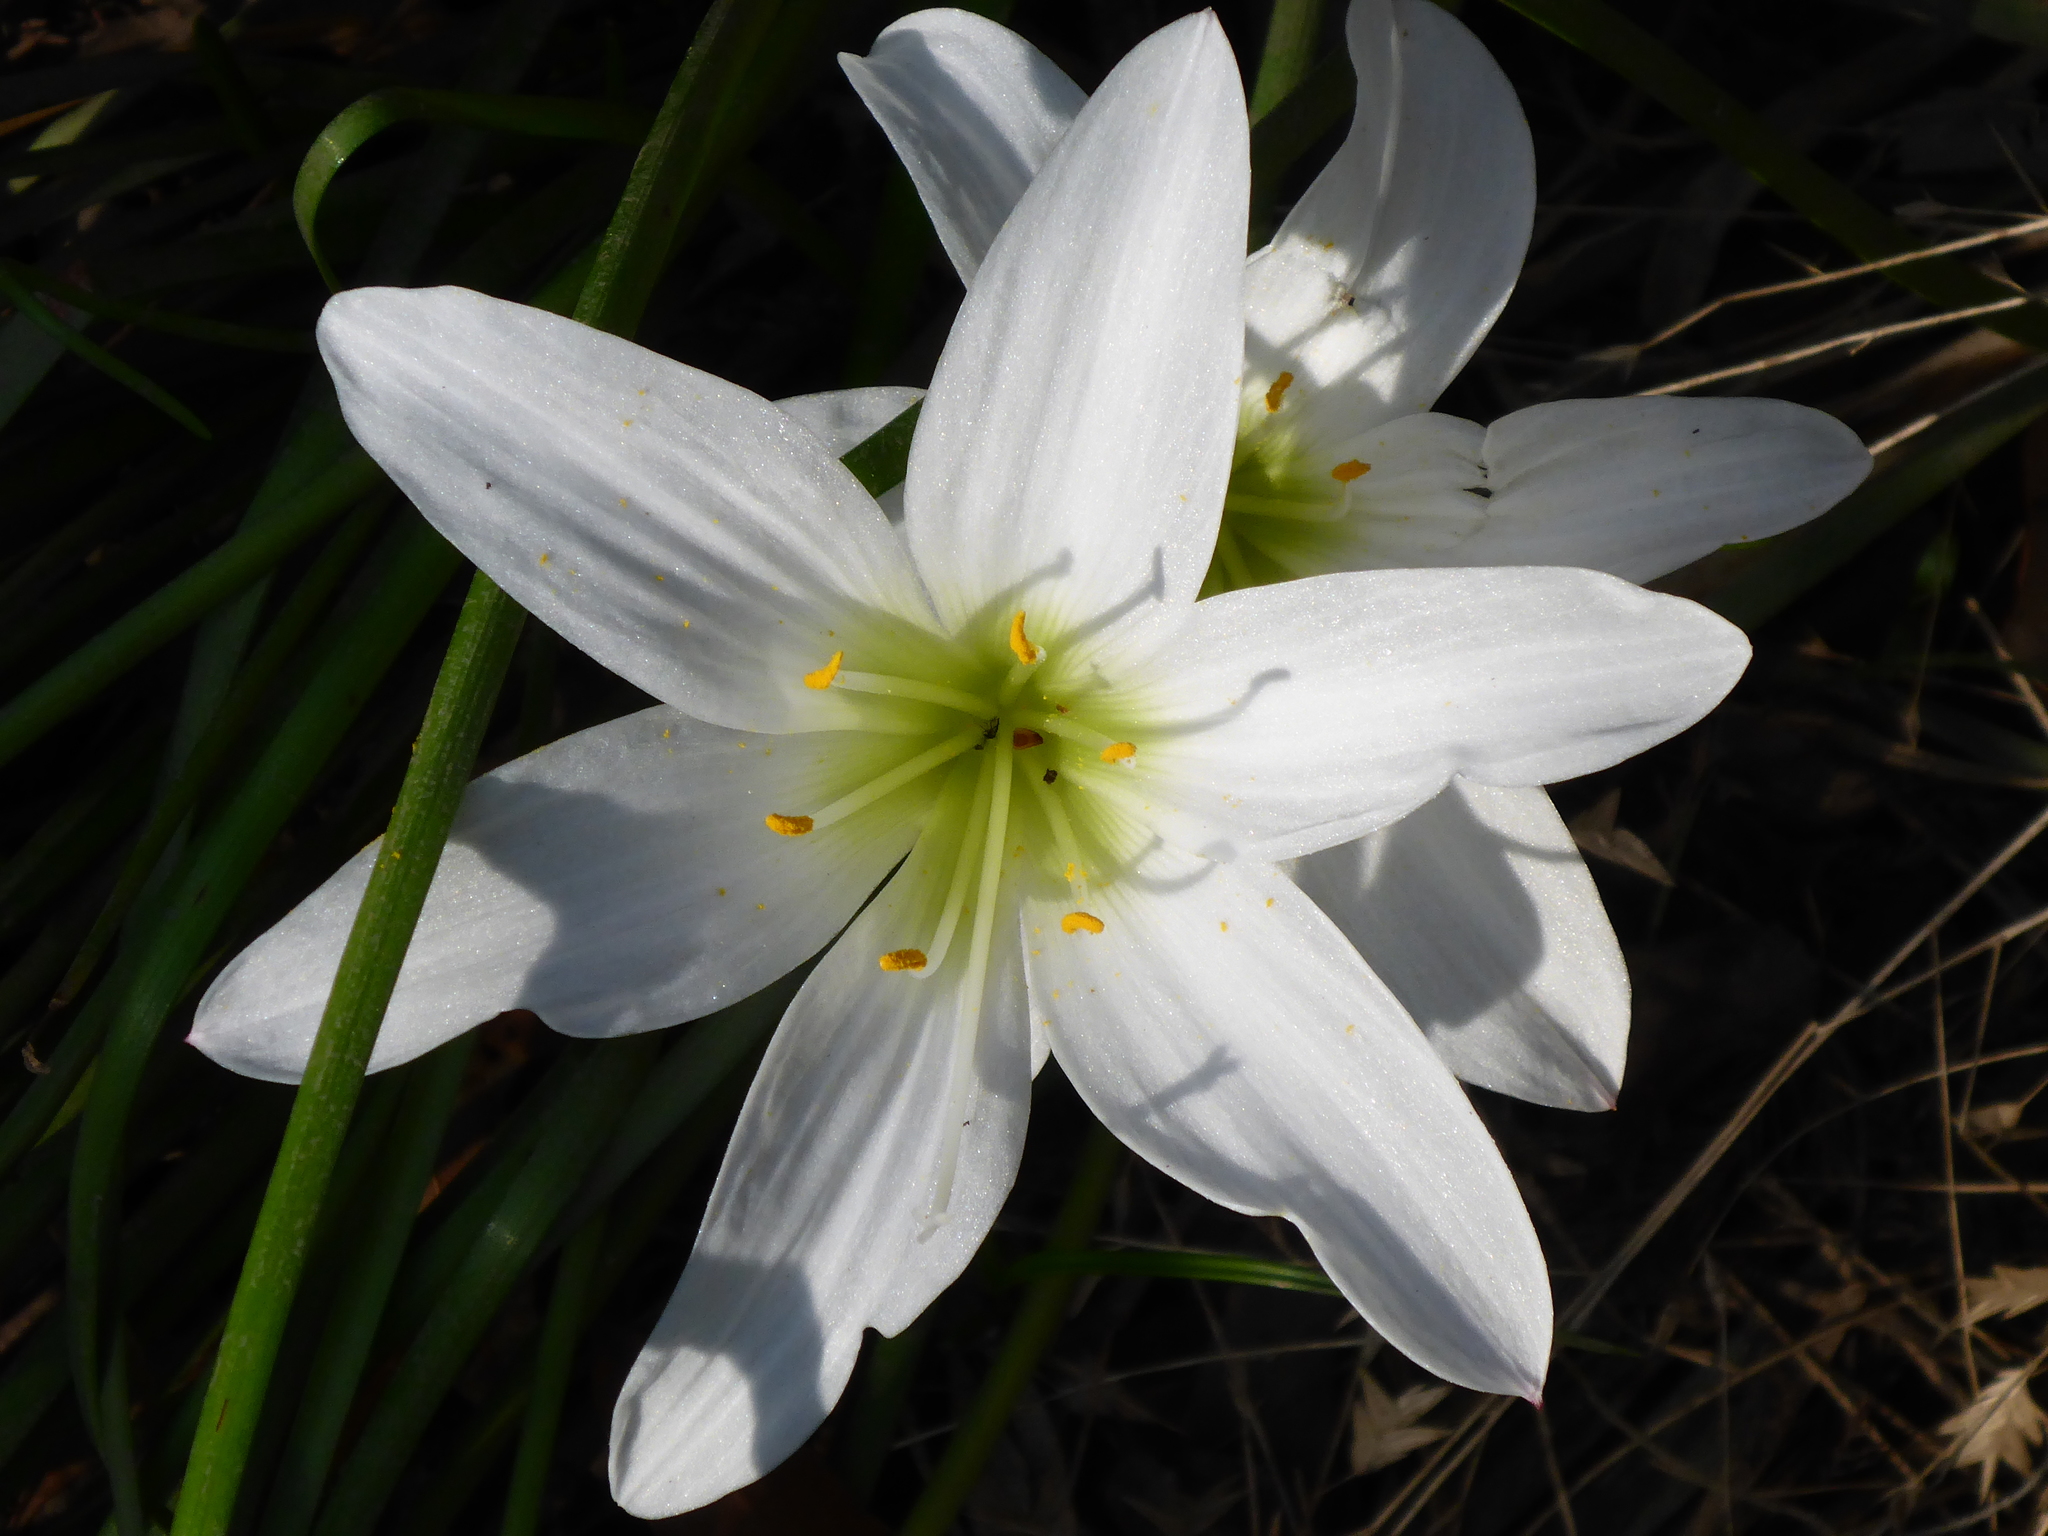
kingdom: Plantae
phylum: Tracheophyta
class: Liliopsida
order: Asparagales
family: Amaryllidaceae
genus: Zephyranthes
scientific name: Zephyranthes atamasco
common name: Atamasco lily
